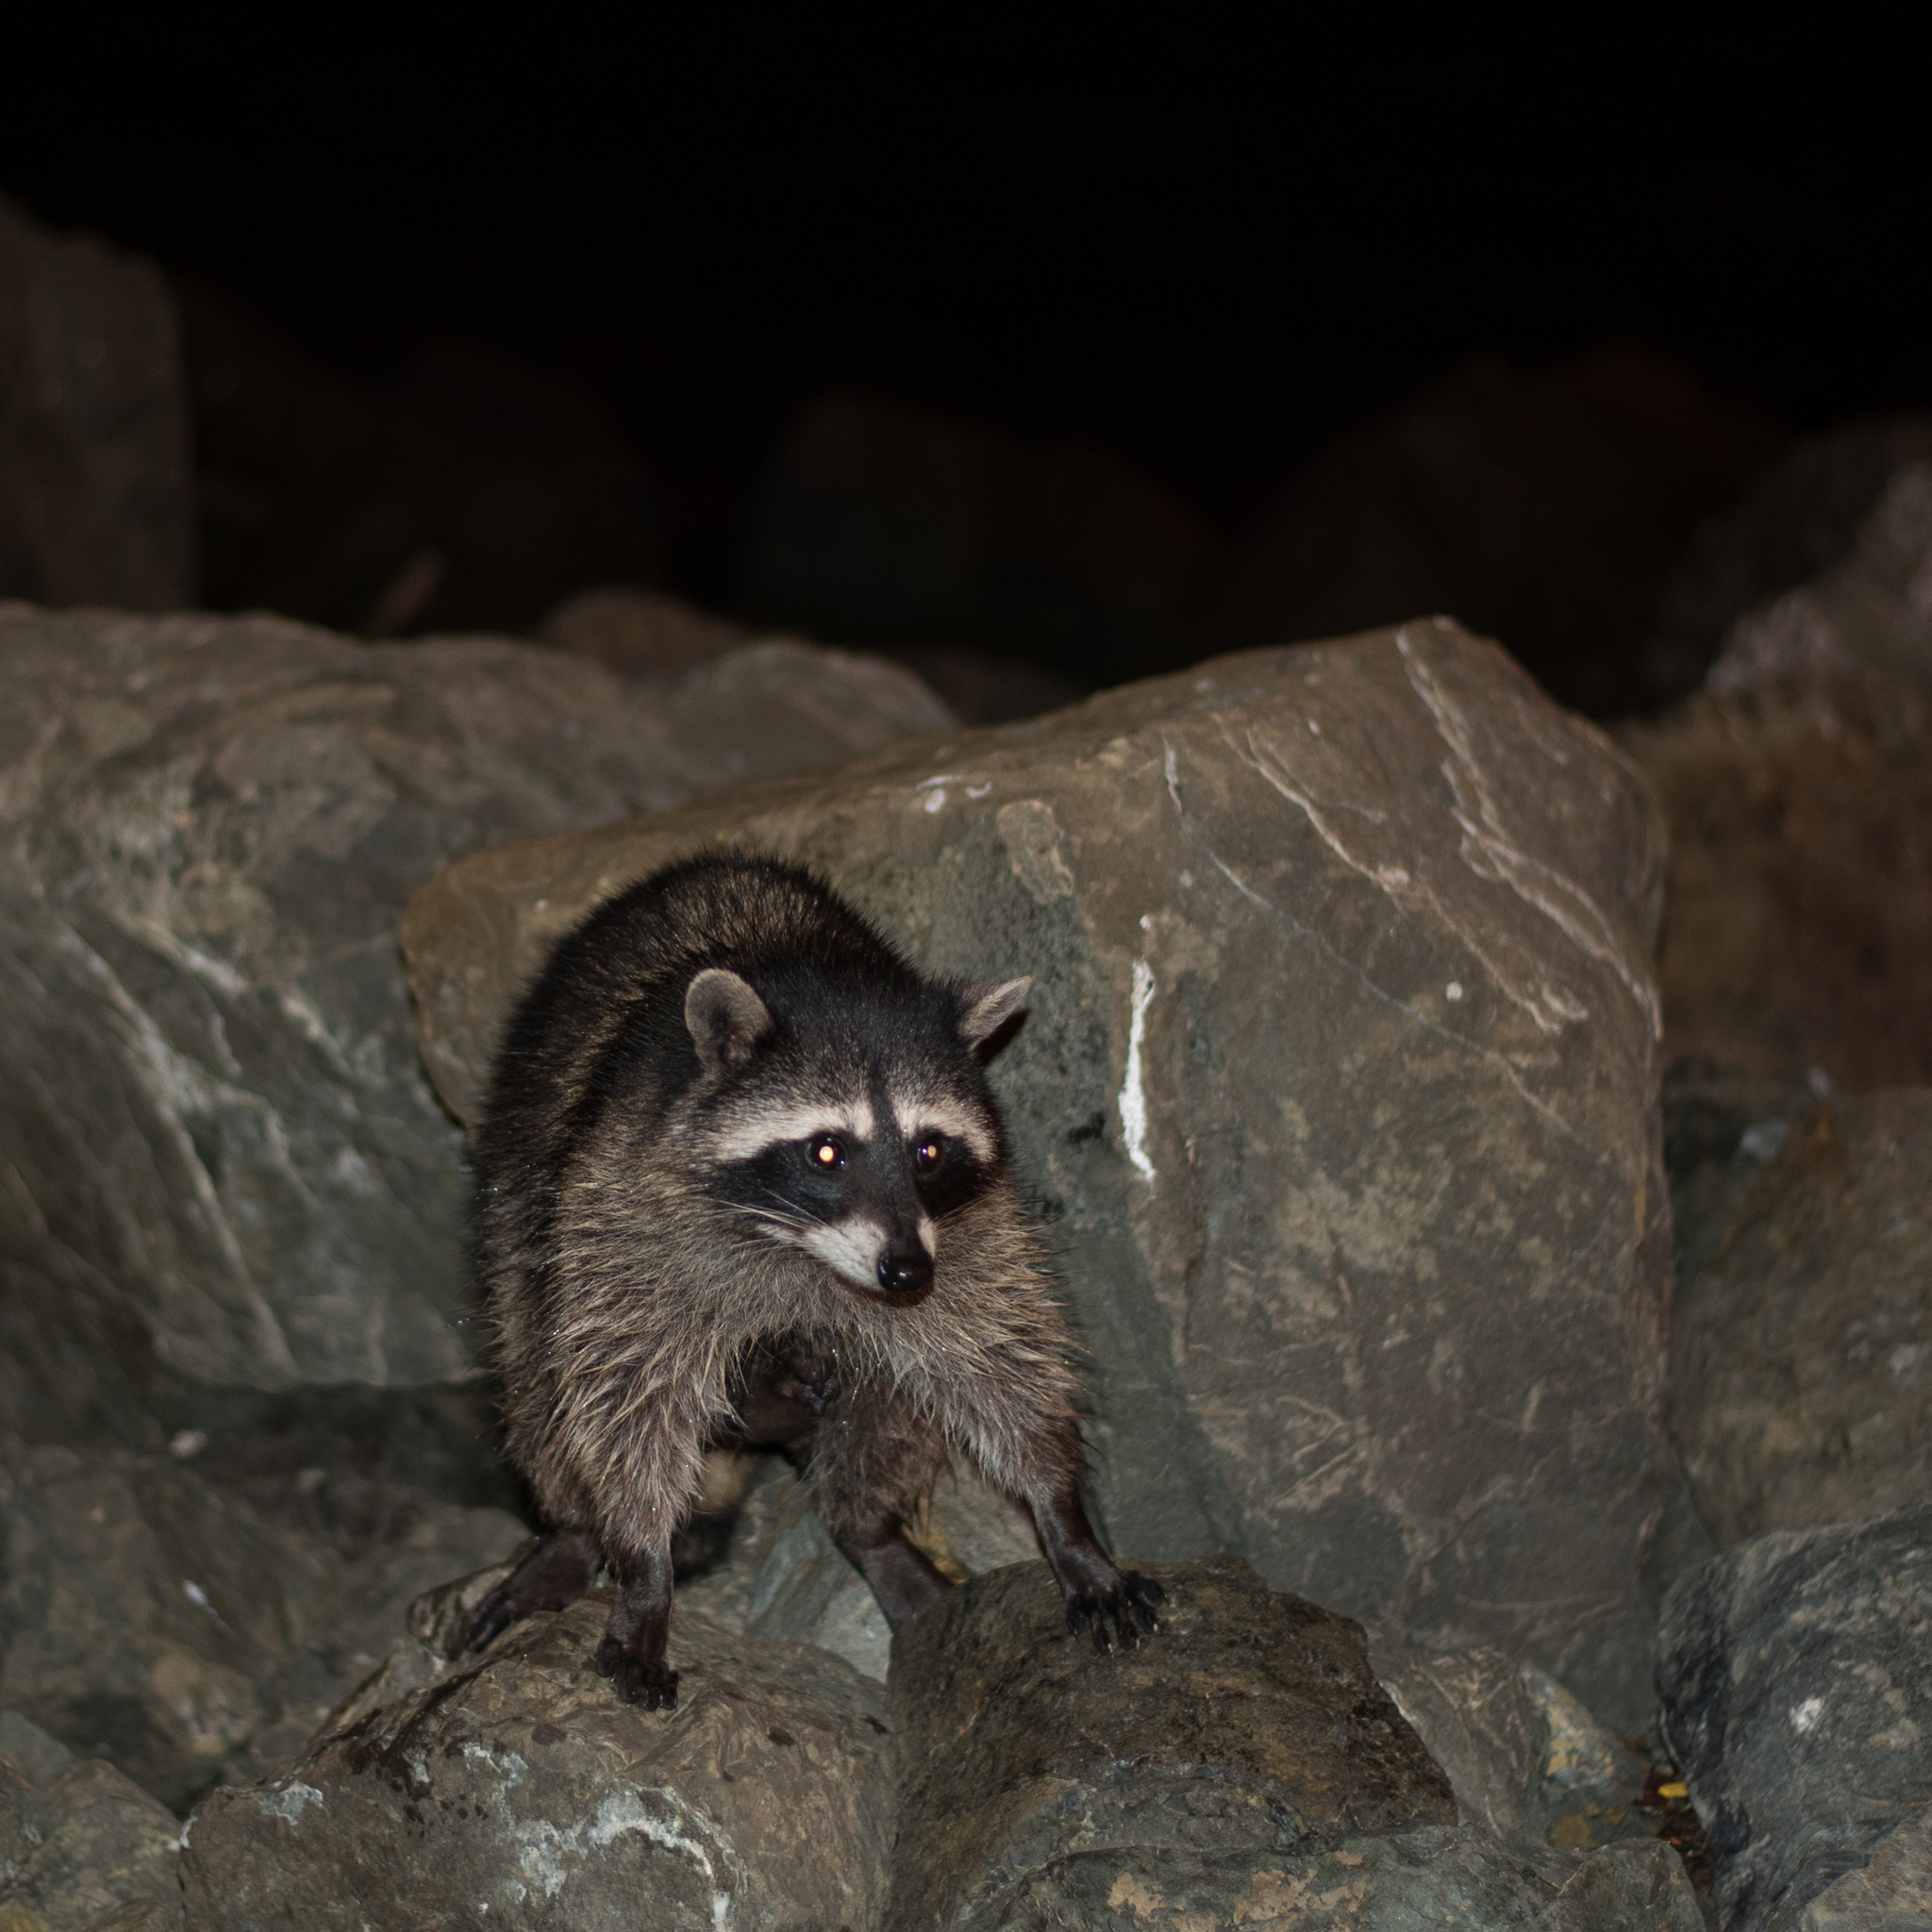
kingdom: Animalia
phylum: Chordata
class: Mammalia
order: Carnivora
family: Procyonidae
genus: Procyon
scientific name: Procyon lotor
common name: Raccoon
